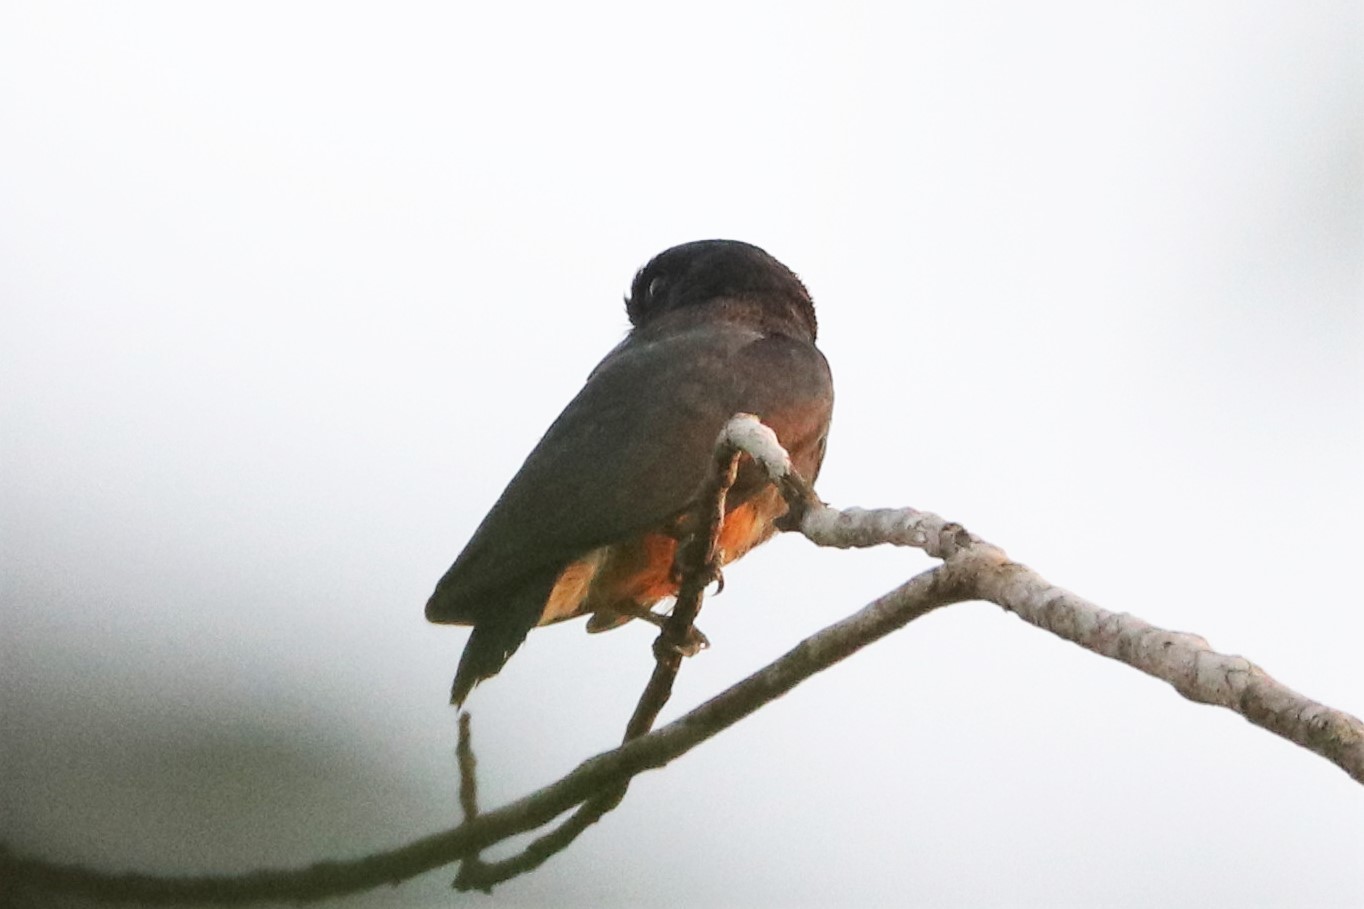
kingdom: Animalia
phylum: Chordata
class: Aves
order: Piciformes
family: Bucconidae
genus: Chelidoptera
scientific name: Chelidoptera tenebrosa
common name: Swallow-winged puffbird
